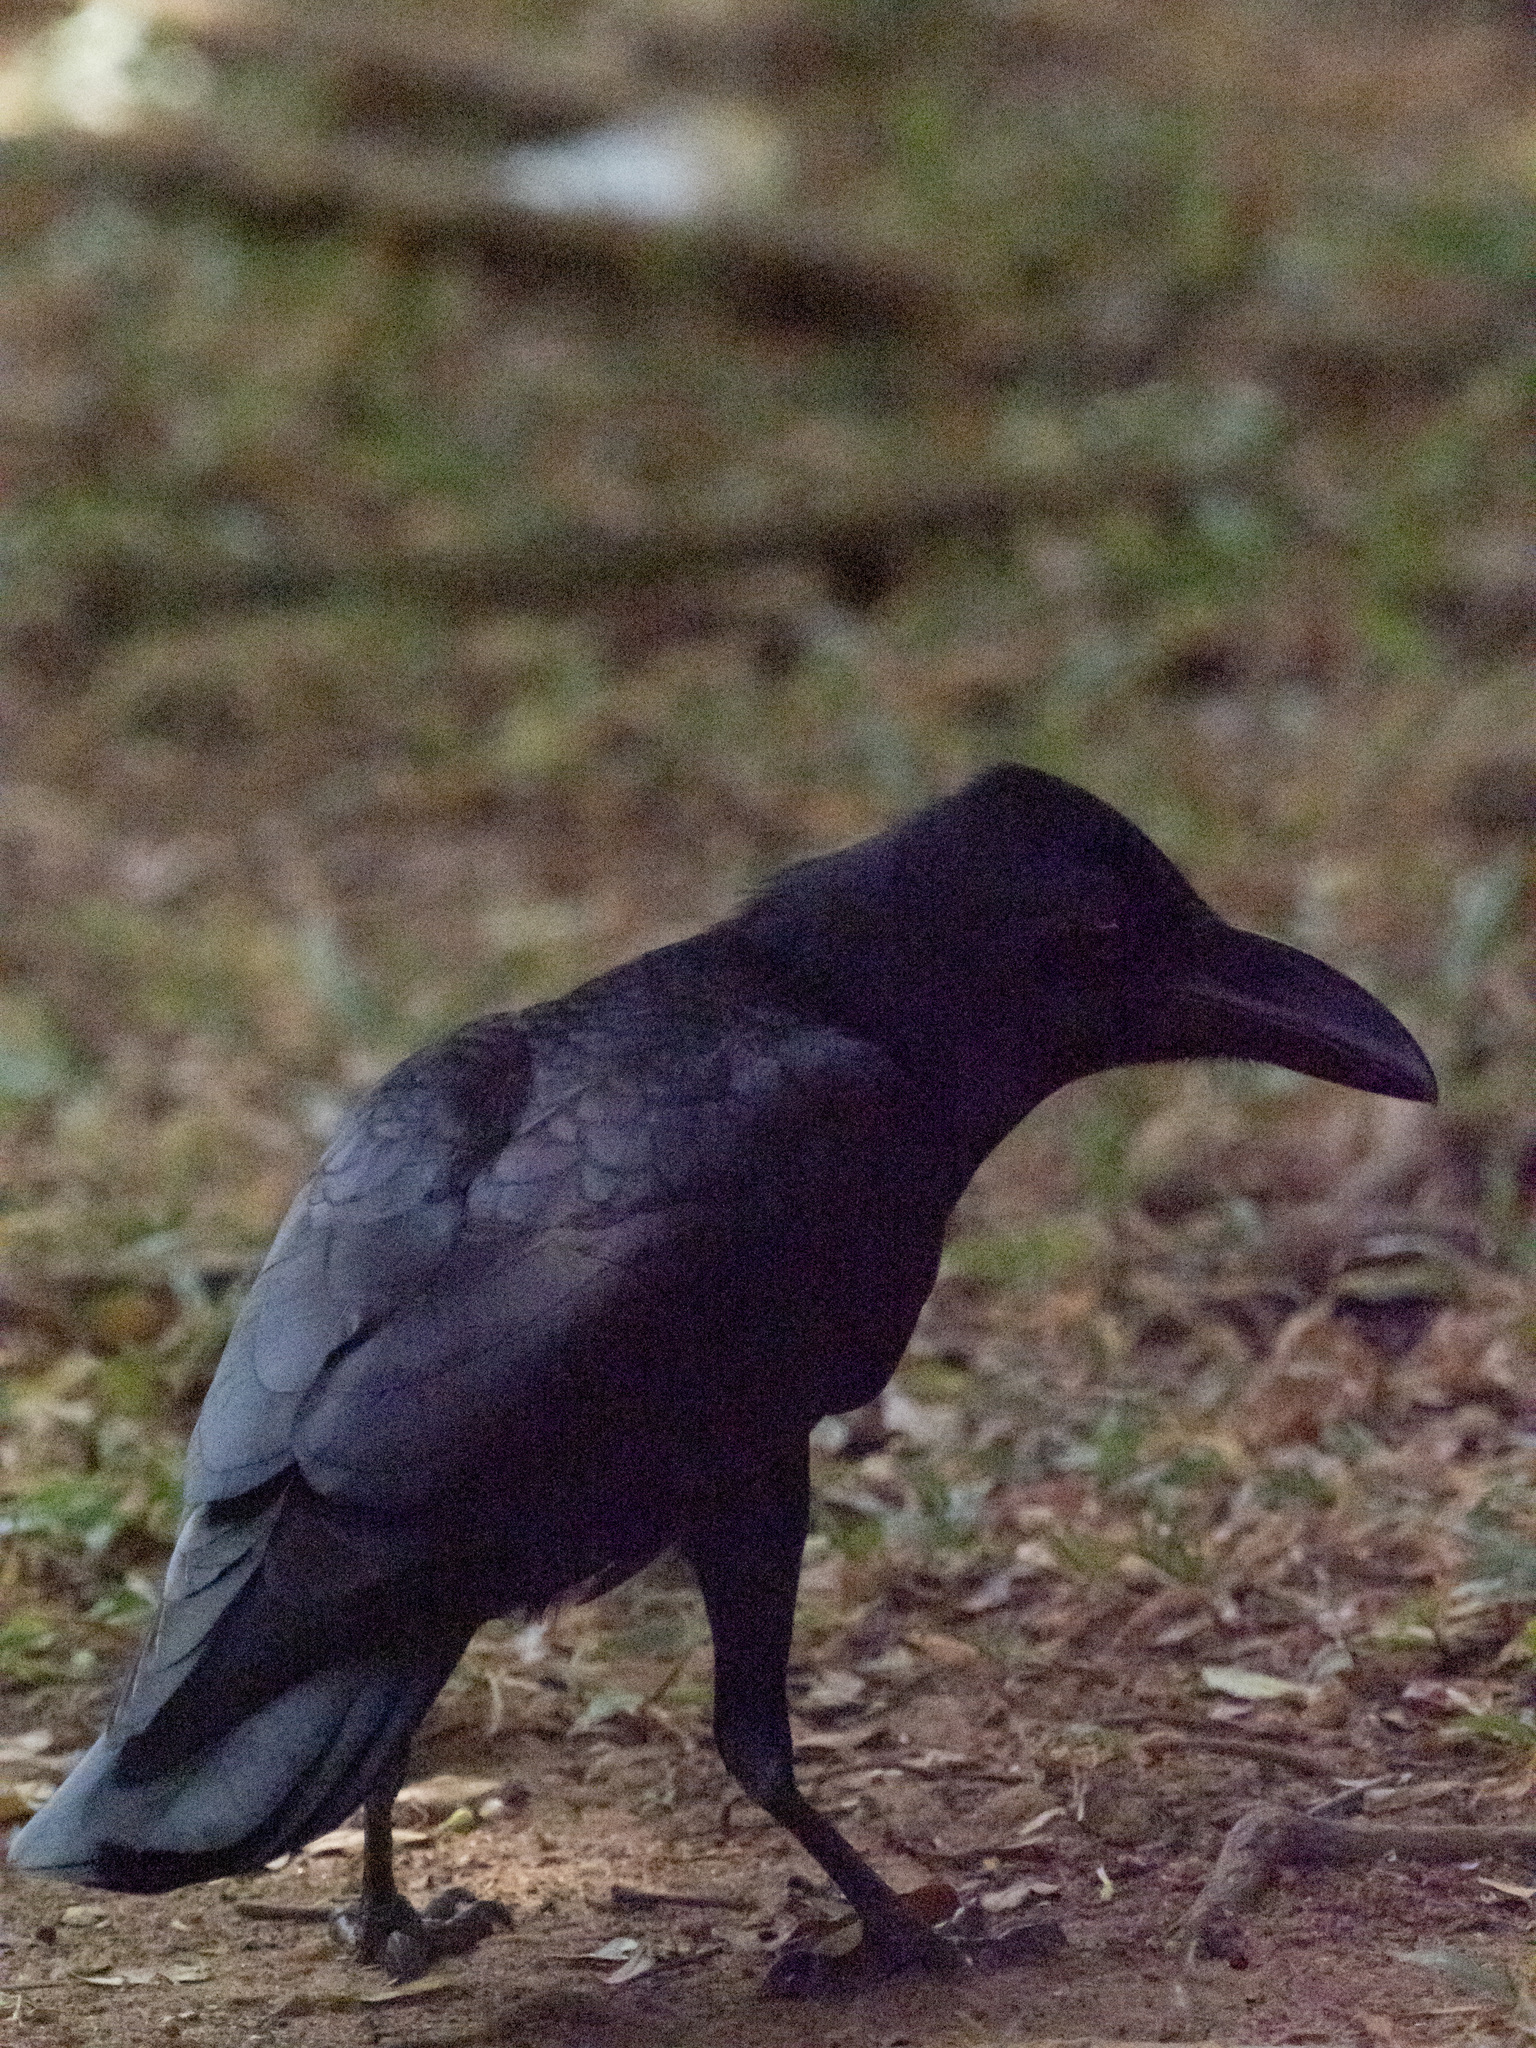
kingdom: Animalia
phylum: Chordata
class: Aves
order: Passeriformes
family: Corvidae
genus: Corvus
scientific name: Corvus macrorhynchos
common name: Large-billed crow
